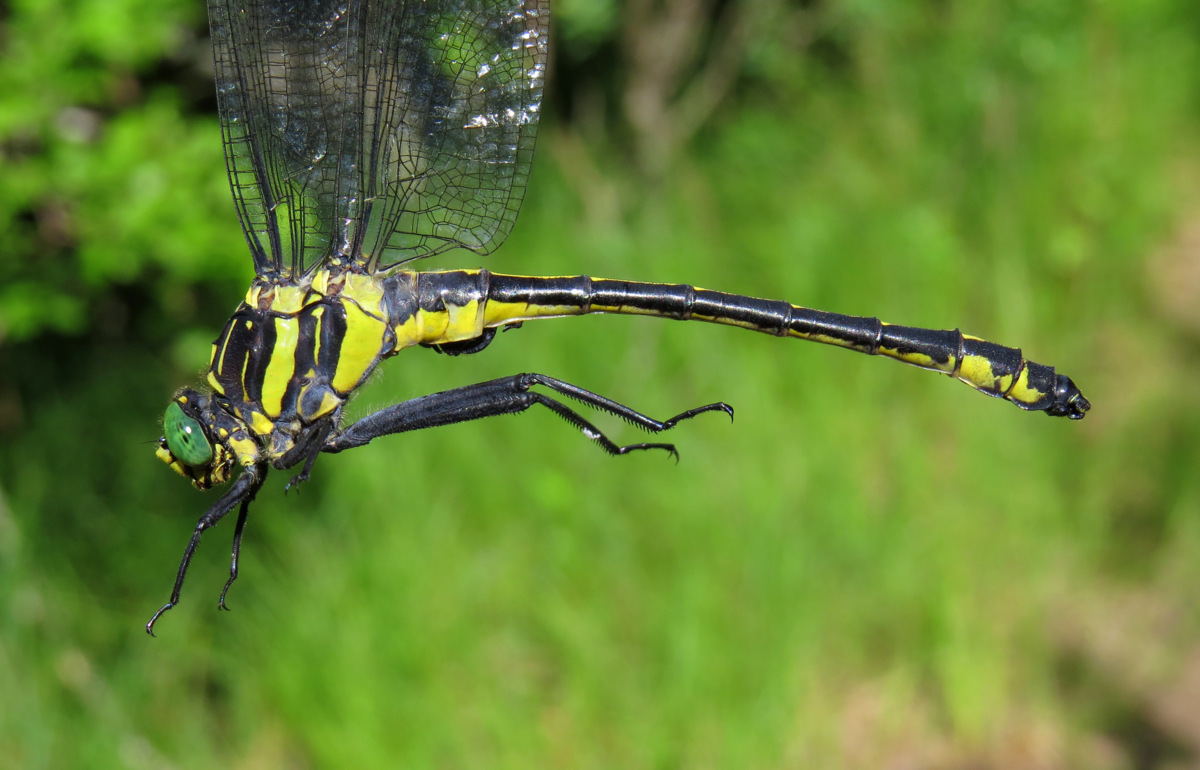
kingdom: Animalia
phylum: Arthropoda
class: Insecta
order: Odonata
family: Gomphidae
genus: Hagenius
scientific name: Hagenius brevistylus
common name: Dragonhunter
